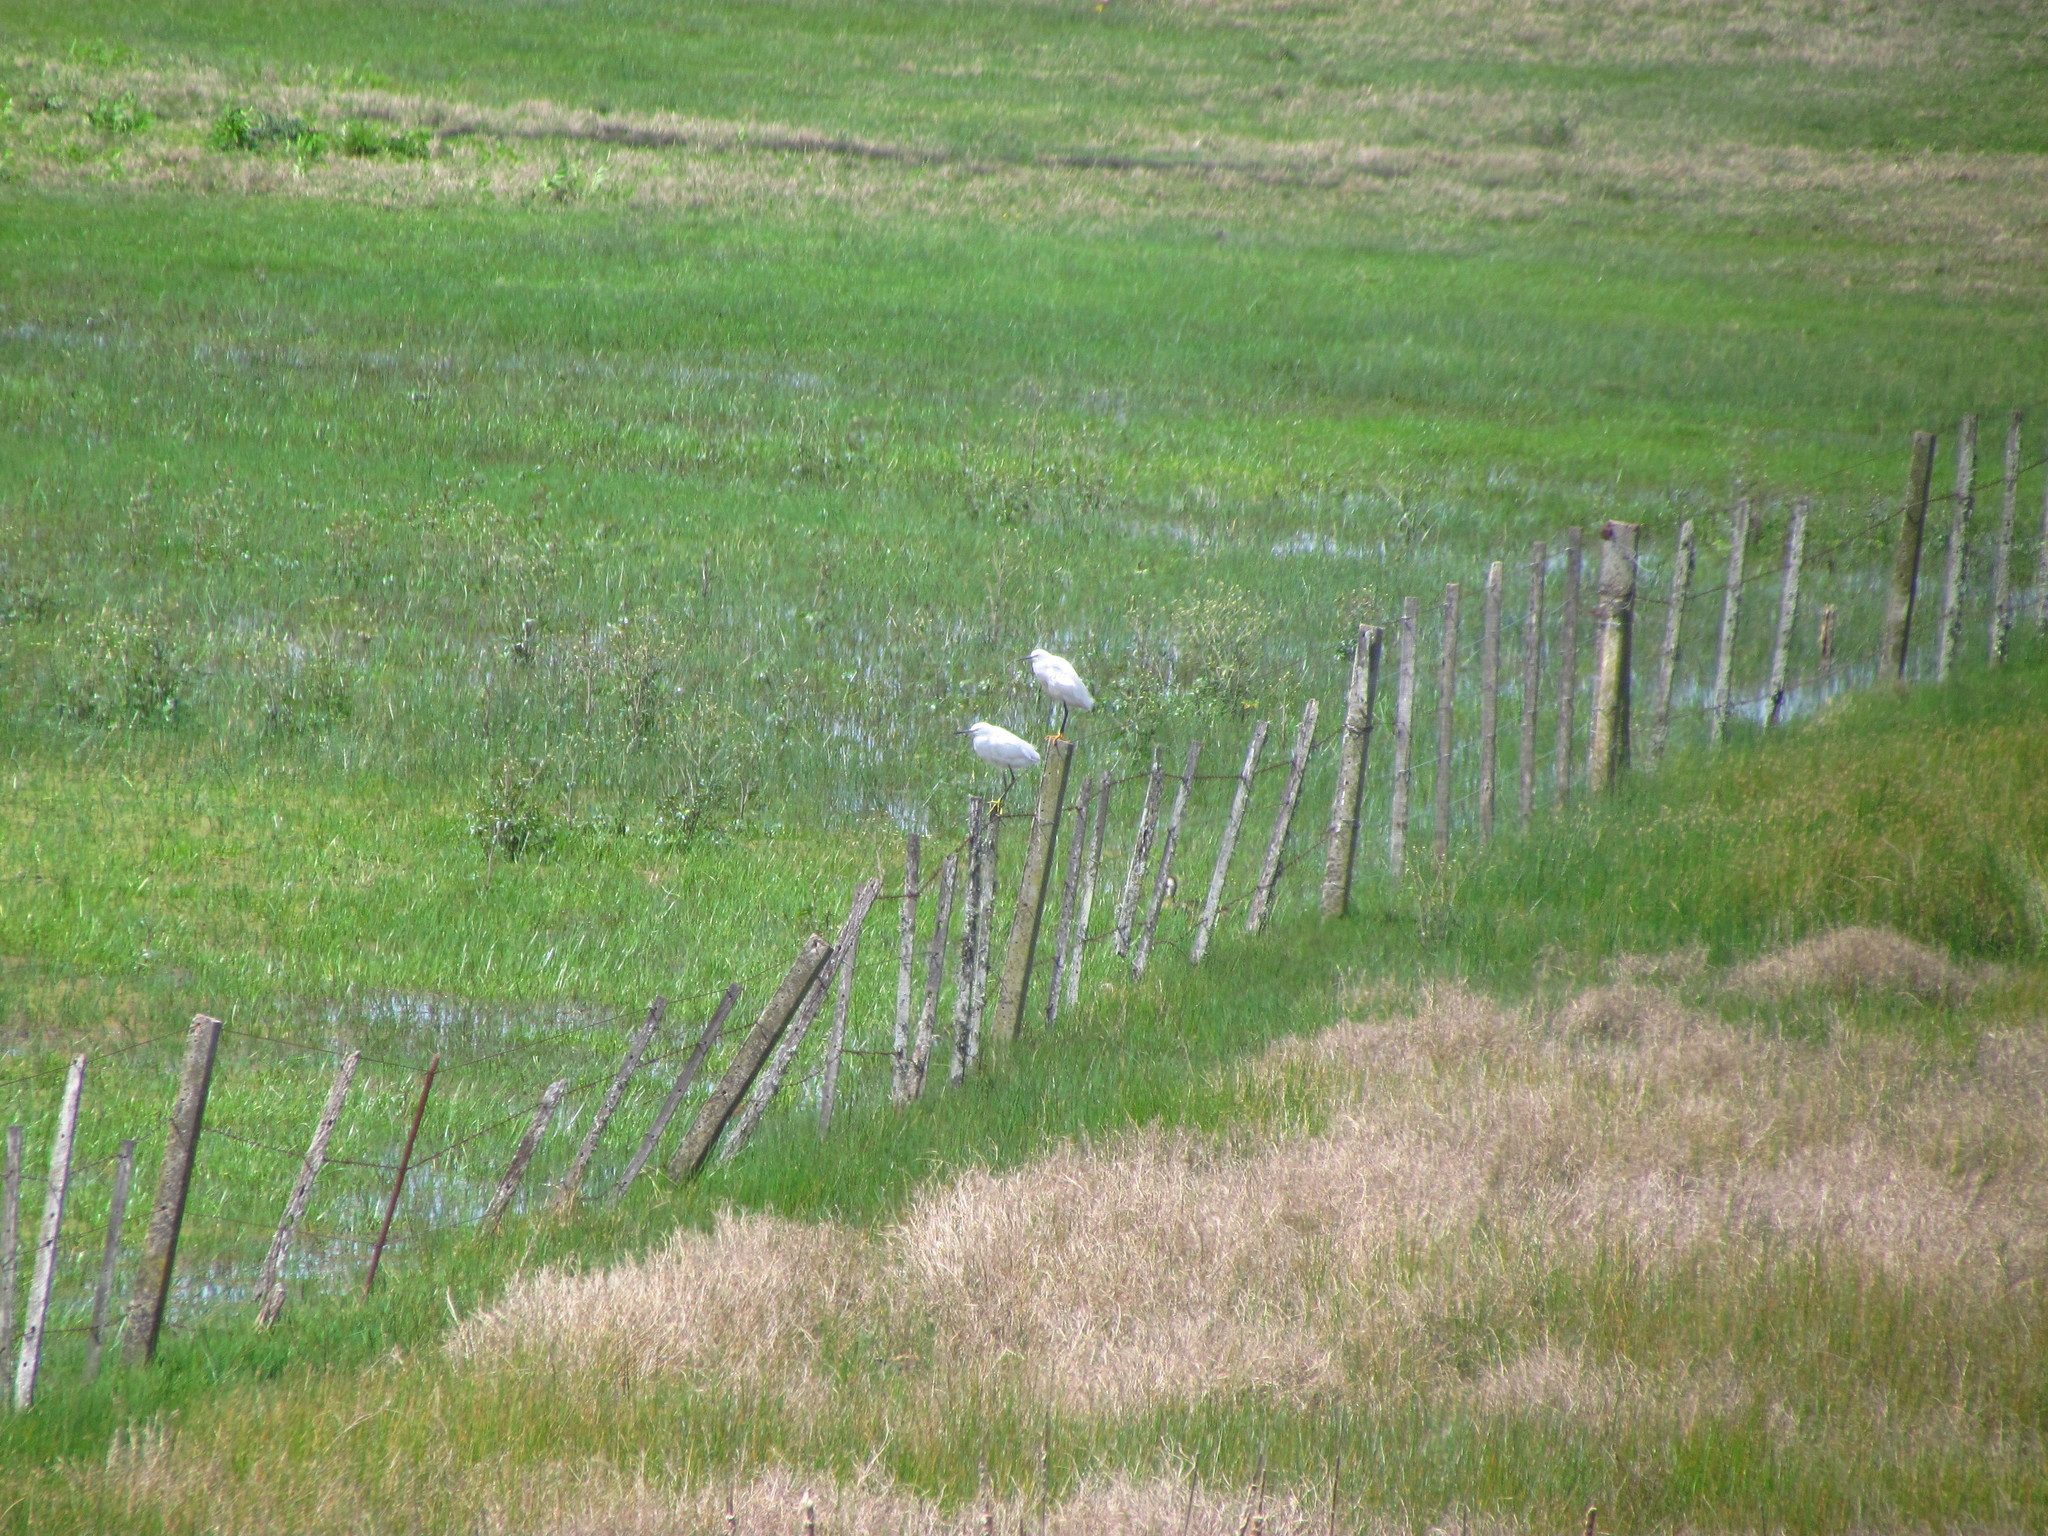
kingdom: Animalia
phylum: Chordata
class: Aves
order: Pelecaniformes
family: Ardeidae
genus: Egretta
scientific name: Egretta thula
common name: Snowy egret
